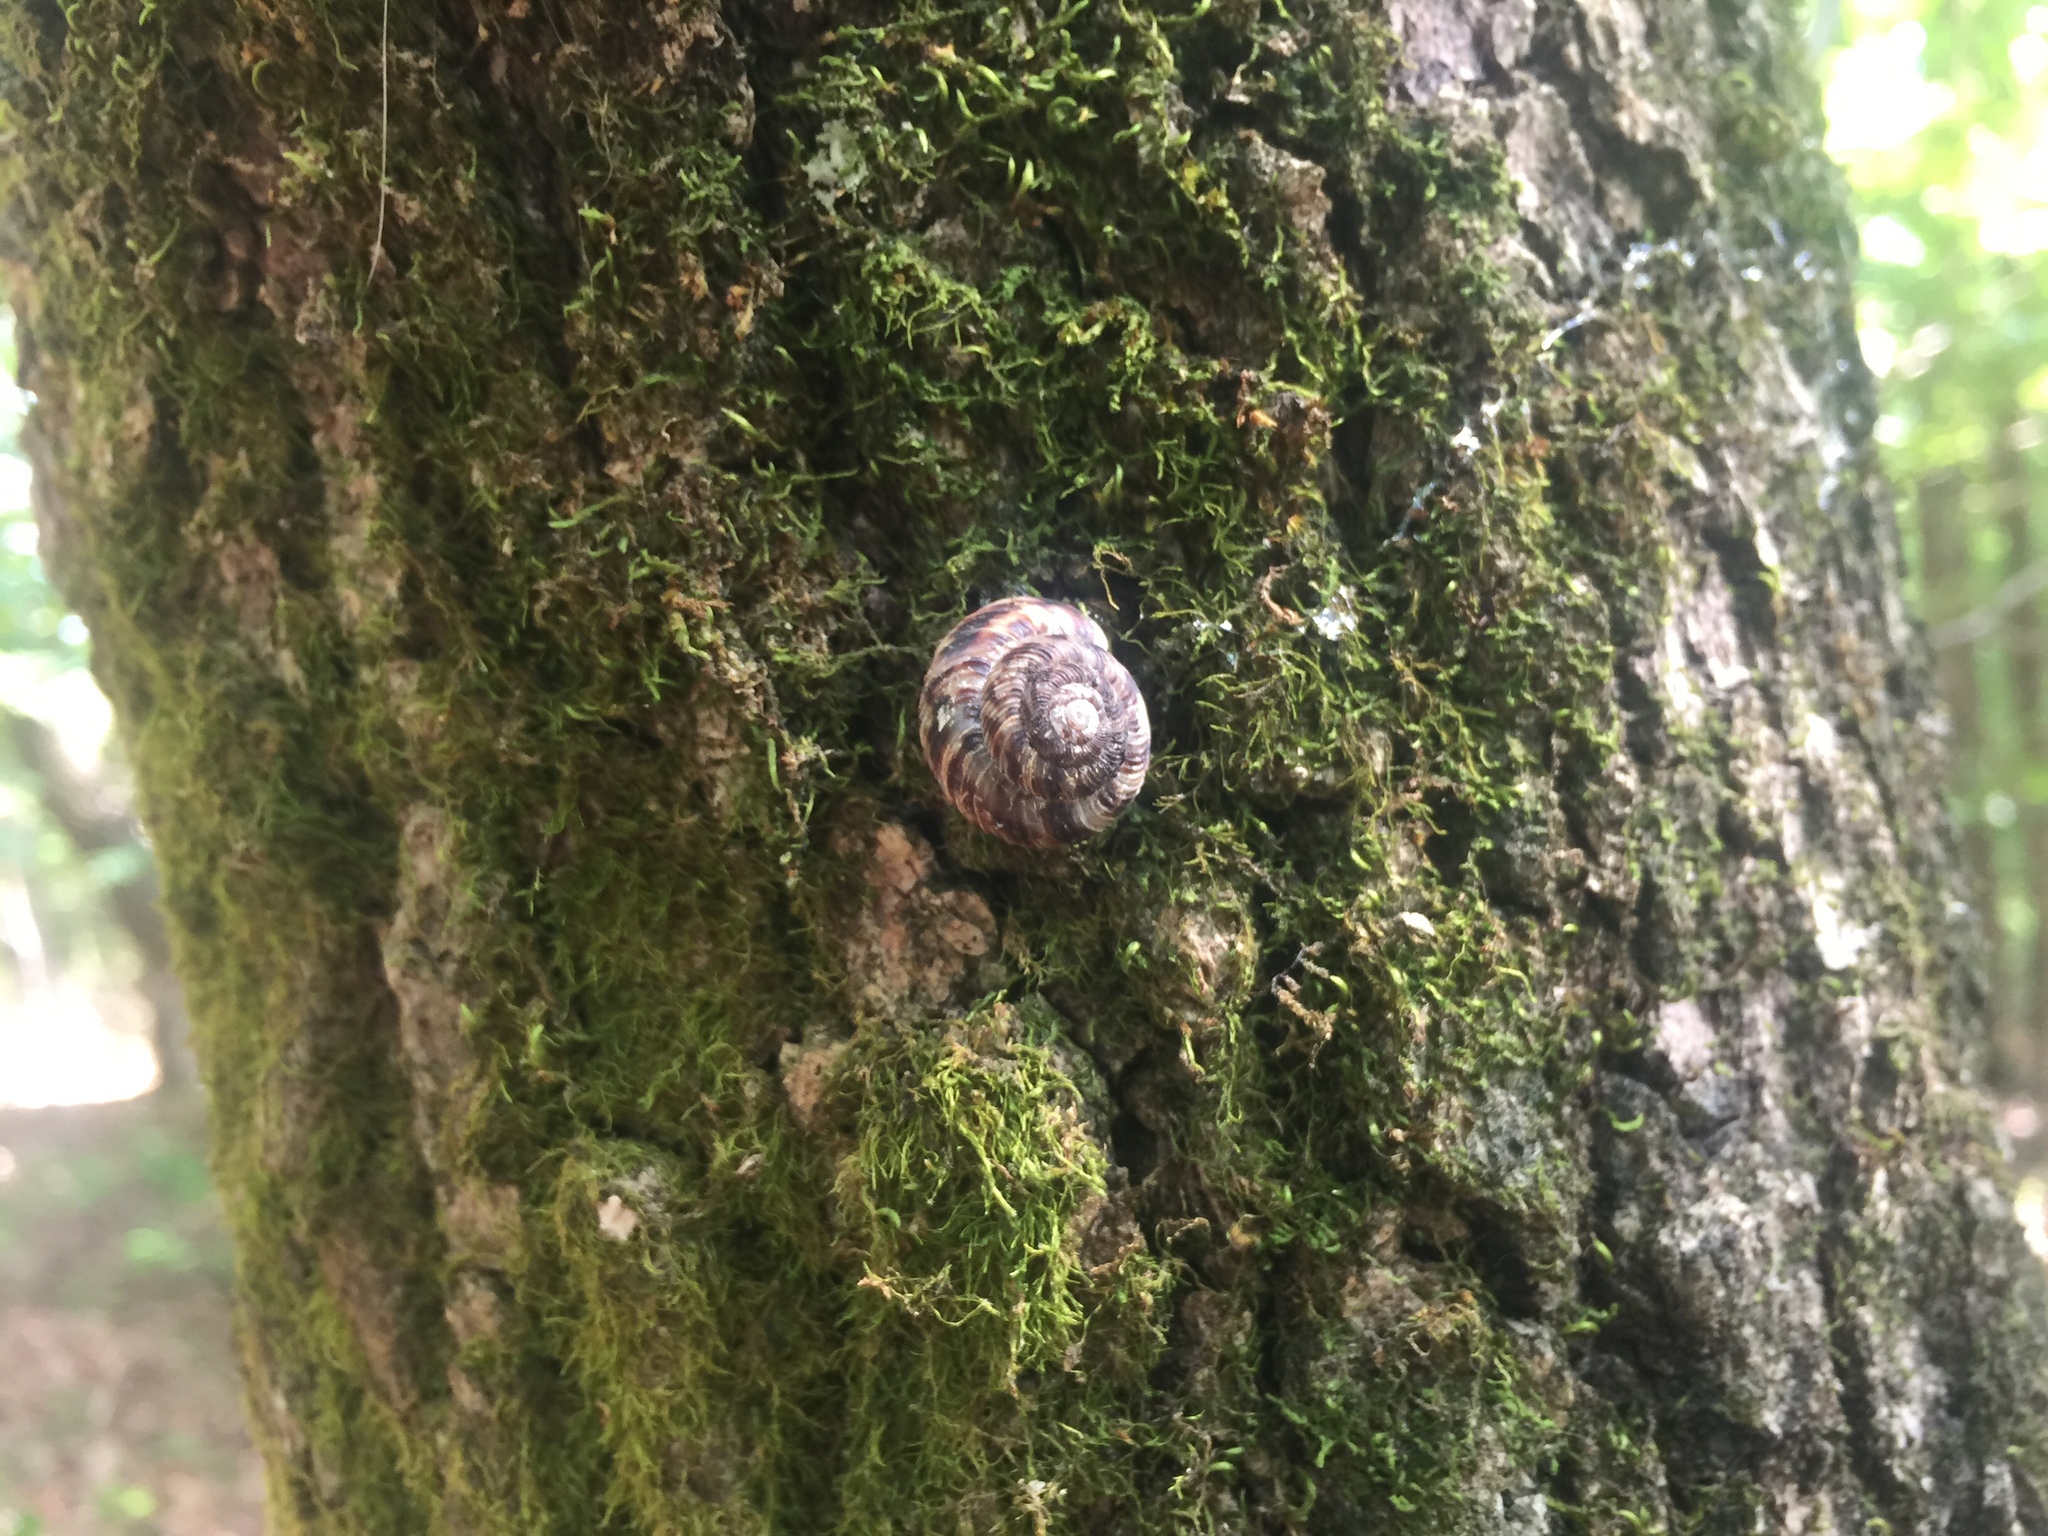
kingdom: Animalia
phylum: Mollusca
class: Gastropoda
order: Stylommatophora
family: Discidae
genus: Anguispira
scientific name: Anguispira alternata
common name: Flamed tigersnail
